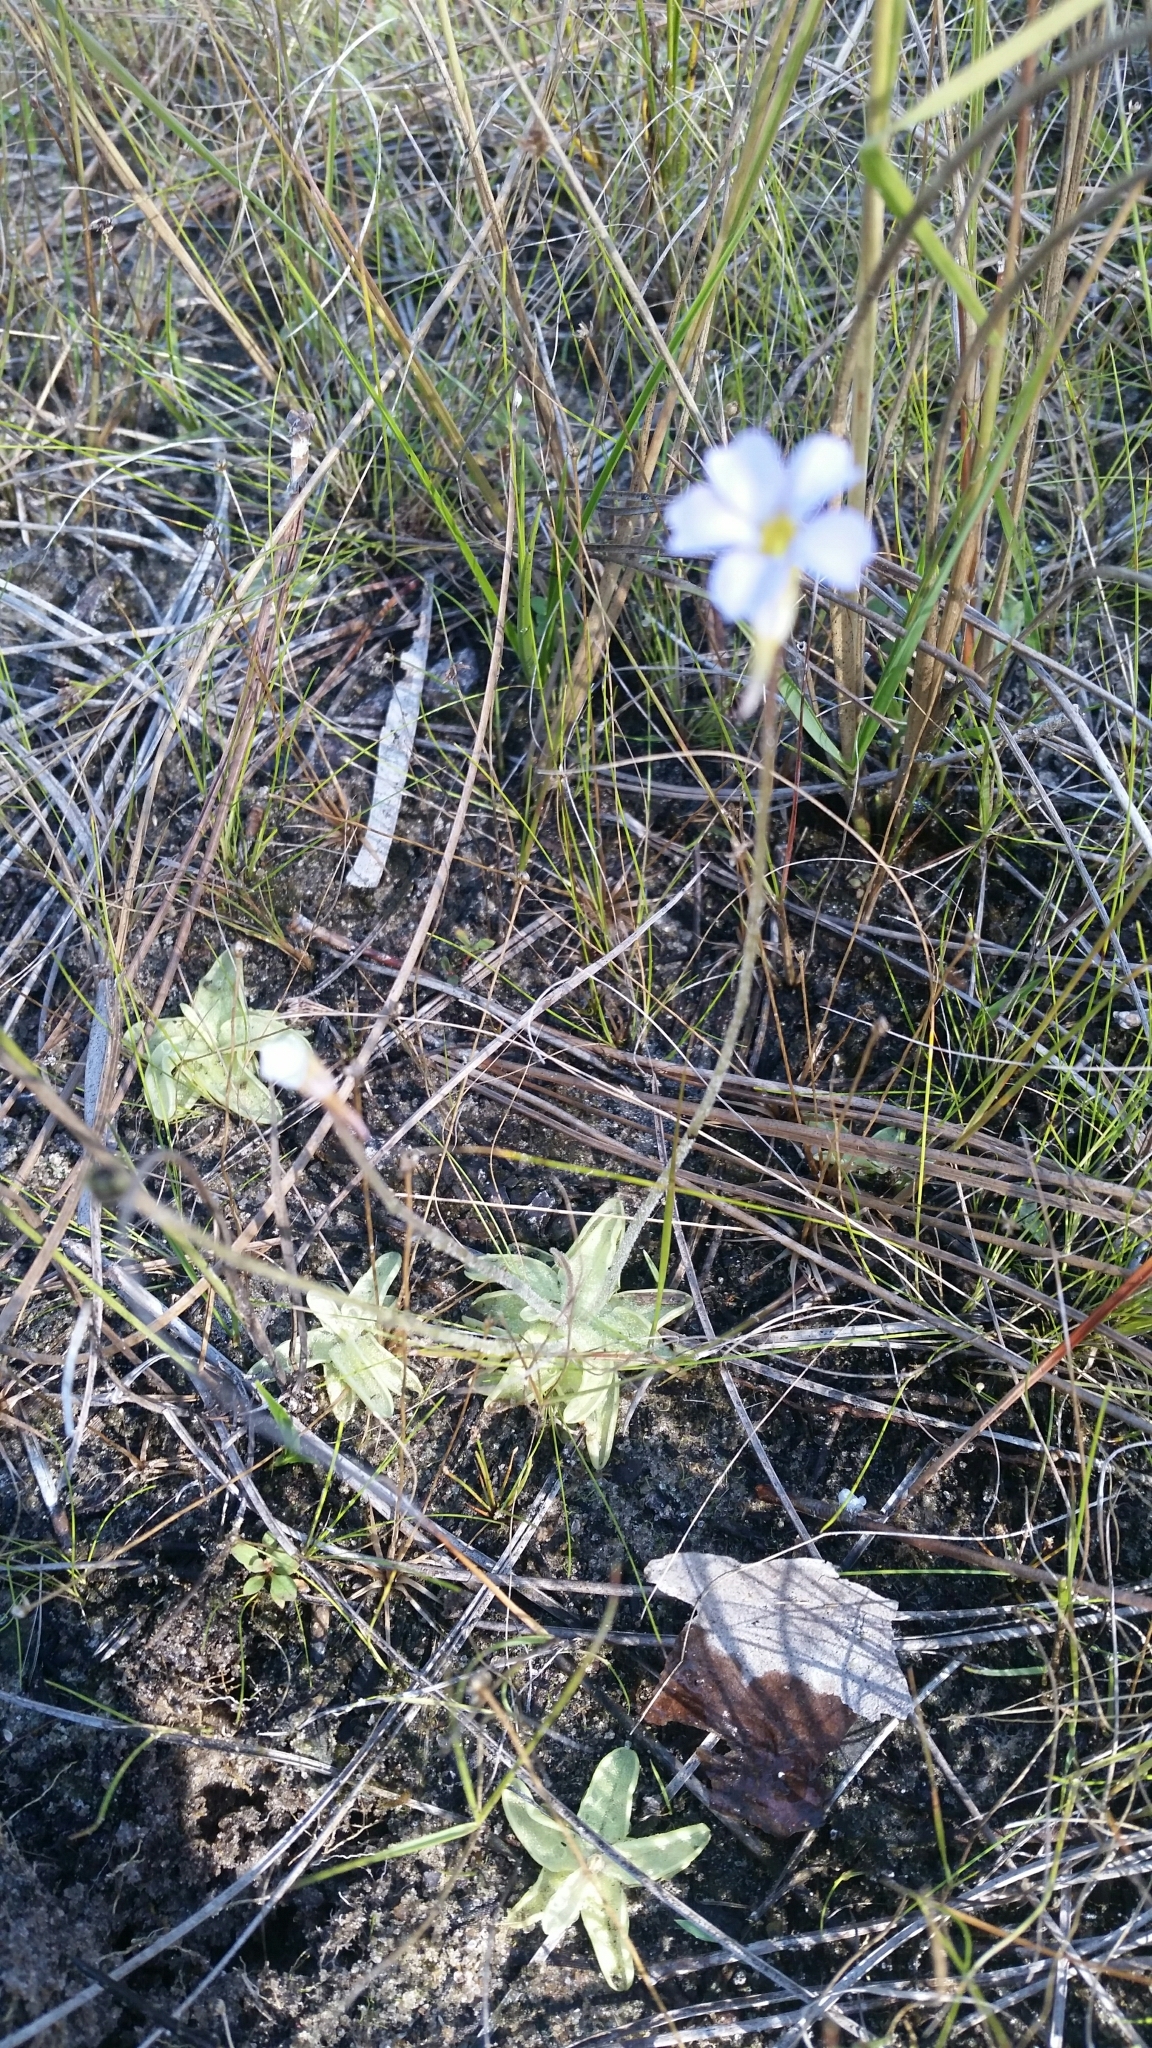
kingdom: Plantae
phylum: Tracheophyta
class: Magnoliopsida
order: Lamiales
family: Lentibulariaceae
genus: Pinguicula
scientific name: Pinguicula pumila
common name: Small butterwort
